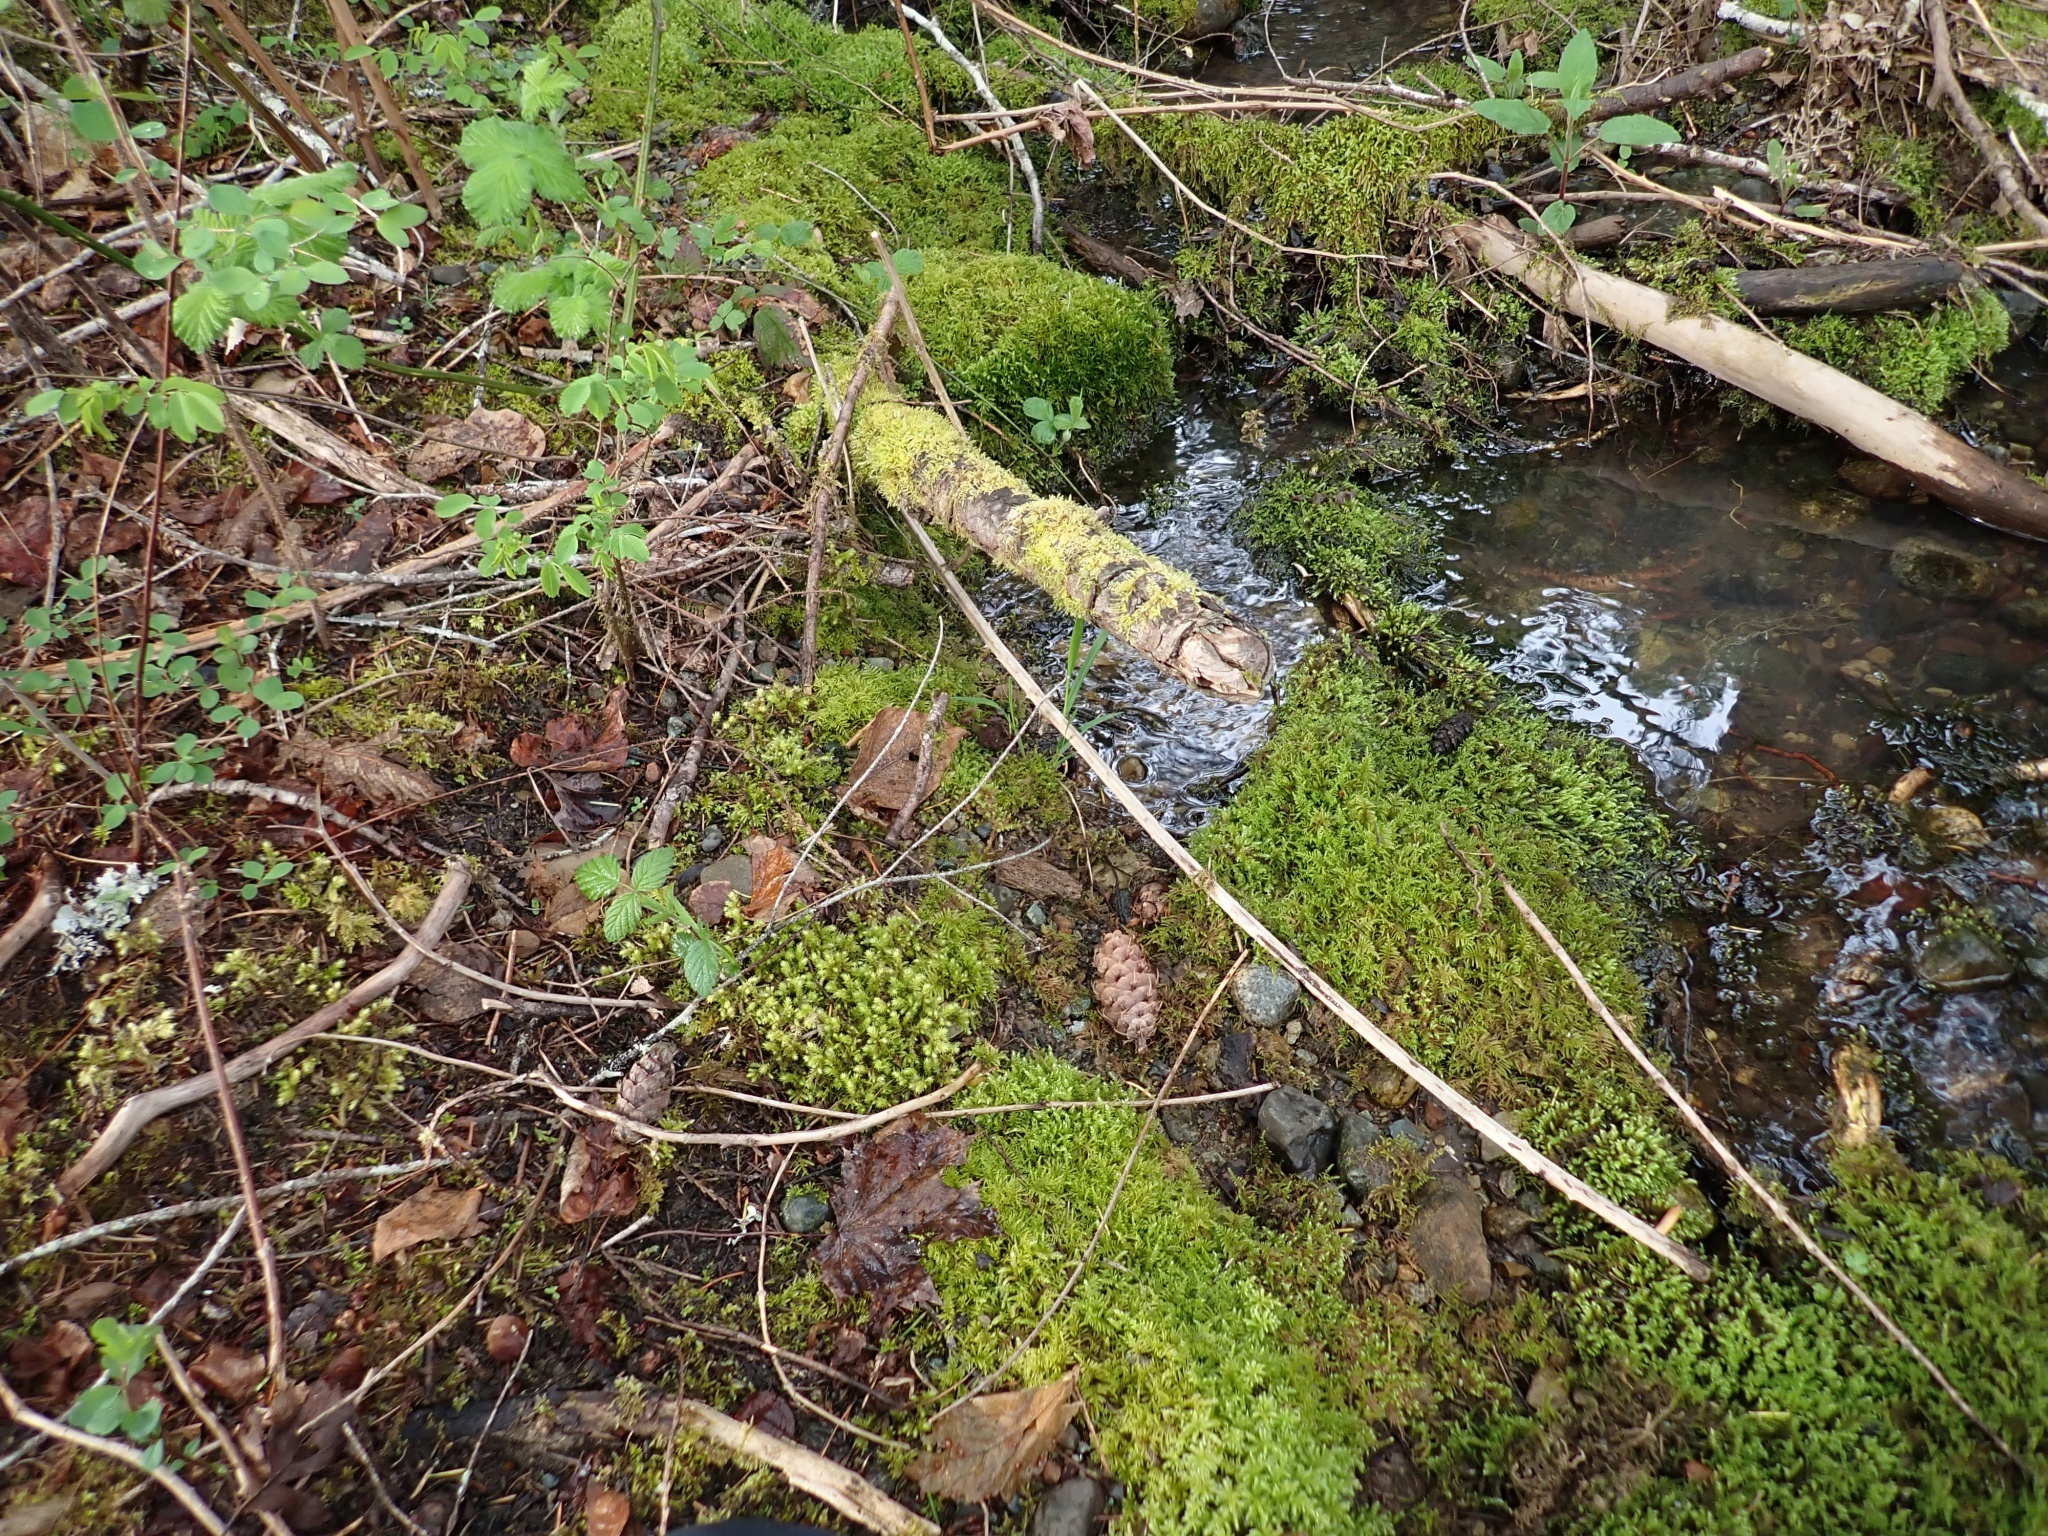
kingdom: Plantae
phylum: Bryophyta
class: Bryopsida
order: Hypnales
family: Brachytheciaceae
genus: Kindbergia
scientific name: Kindbergia praelonga
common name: Slender beaked moss
